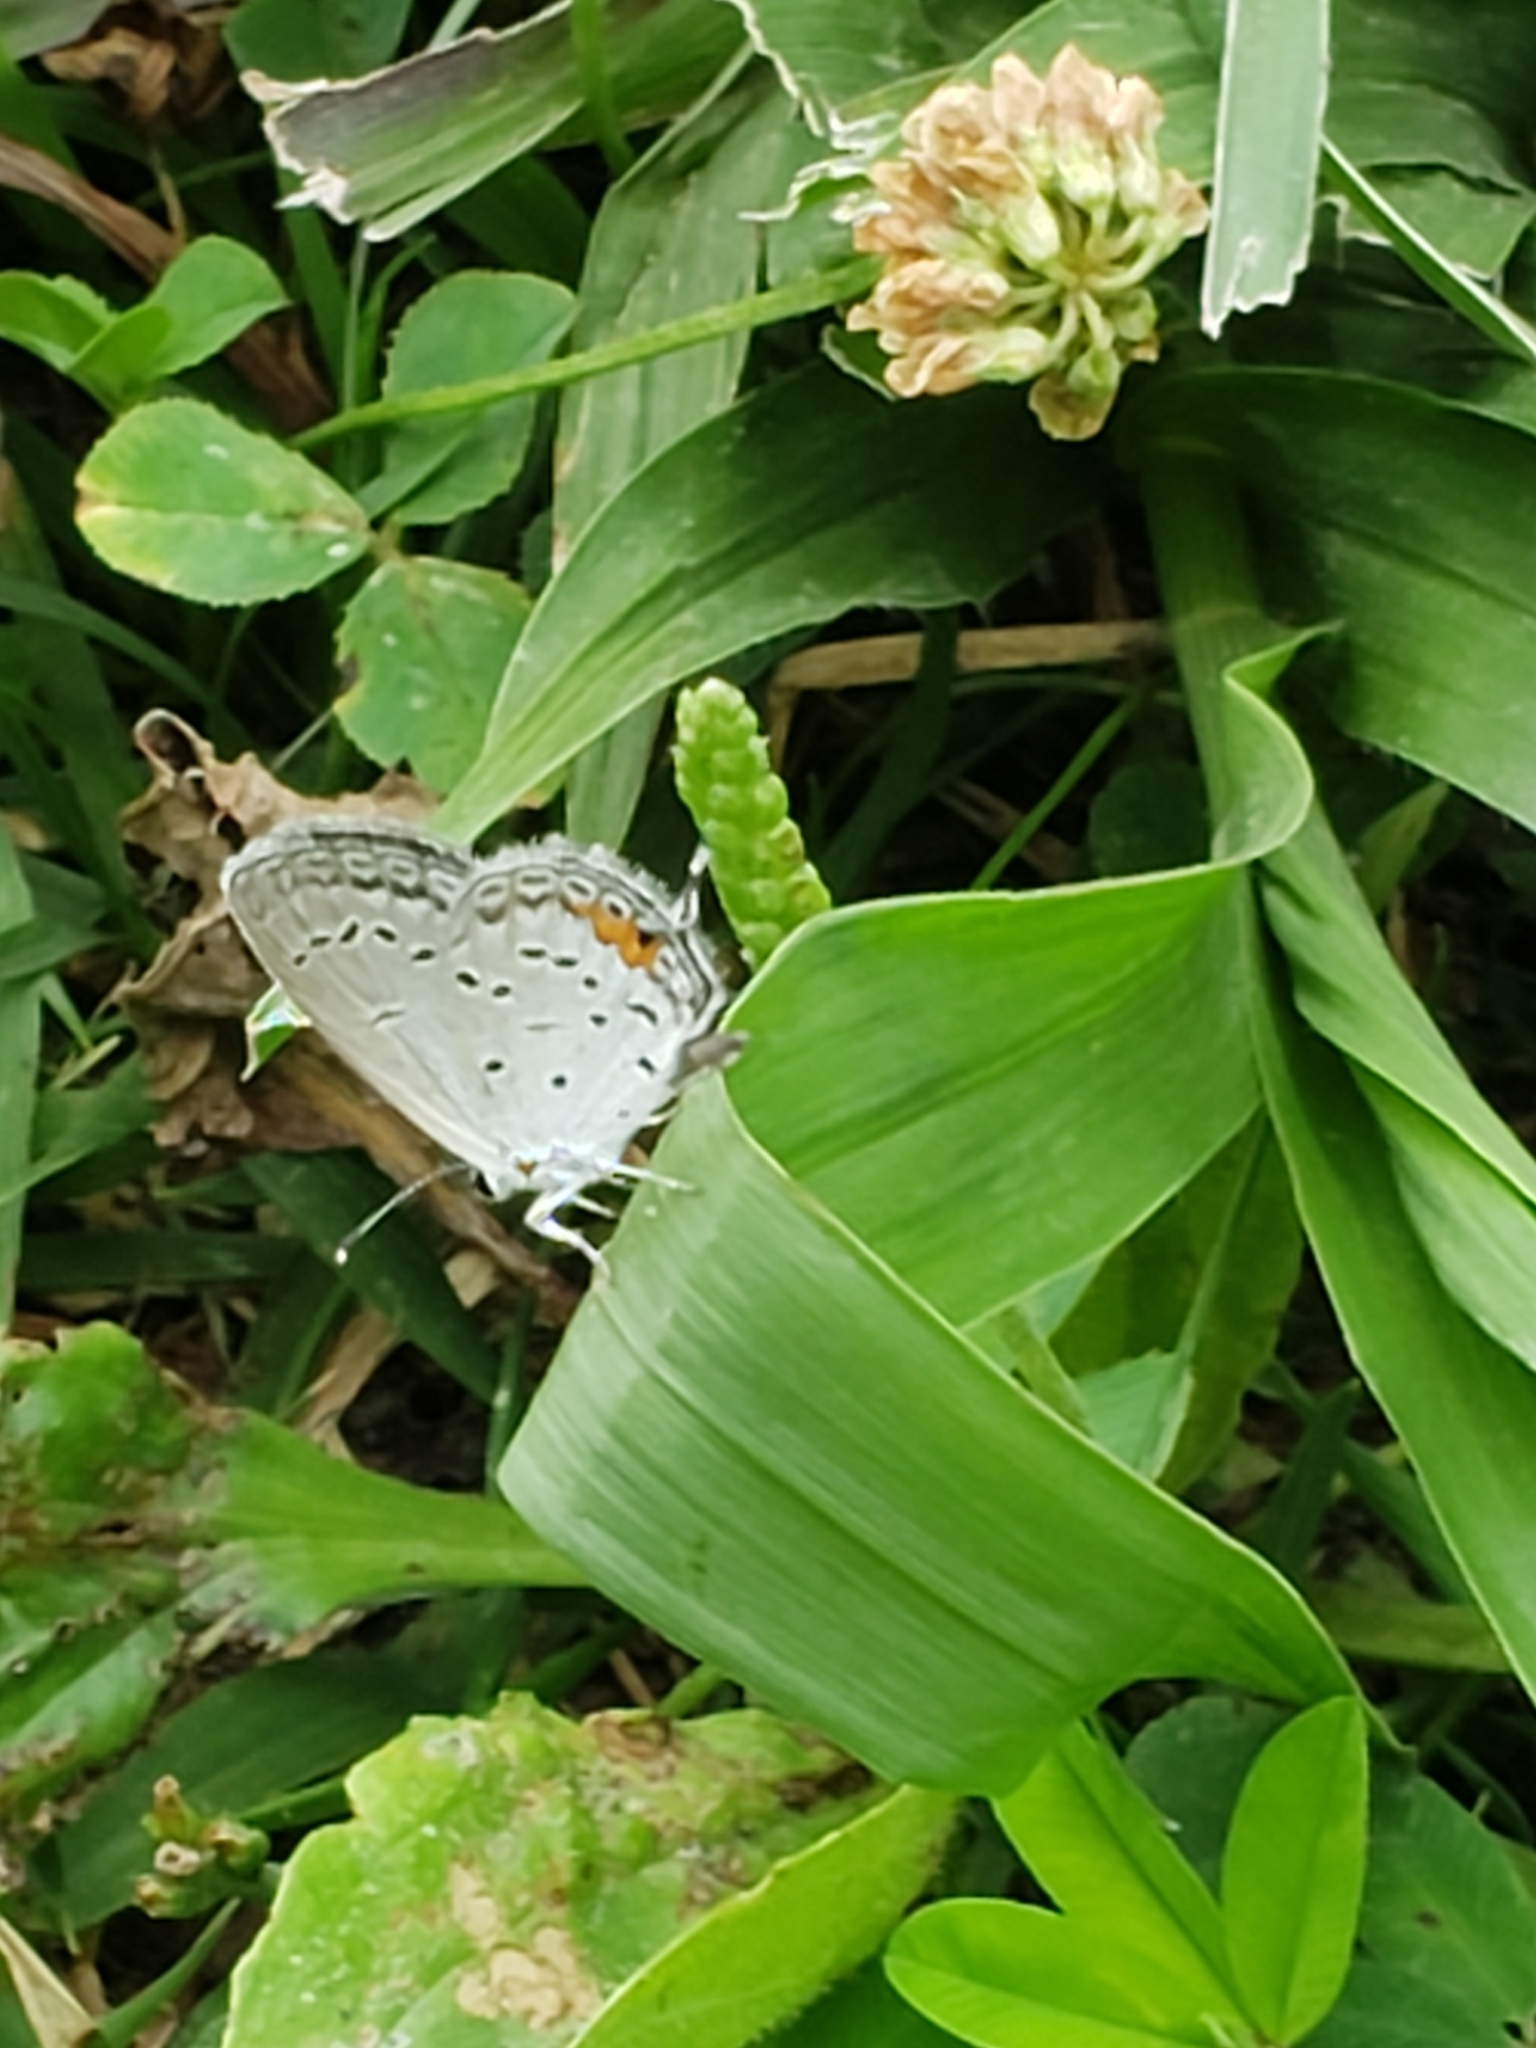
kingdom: Animalia
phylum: Arthropoda
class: Insecta
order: Lepidoptera
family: Lycaenidae
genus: Elkalyce
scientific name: Elkalyce comyntas
